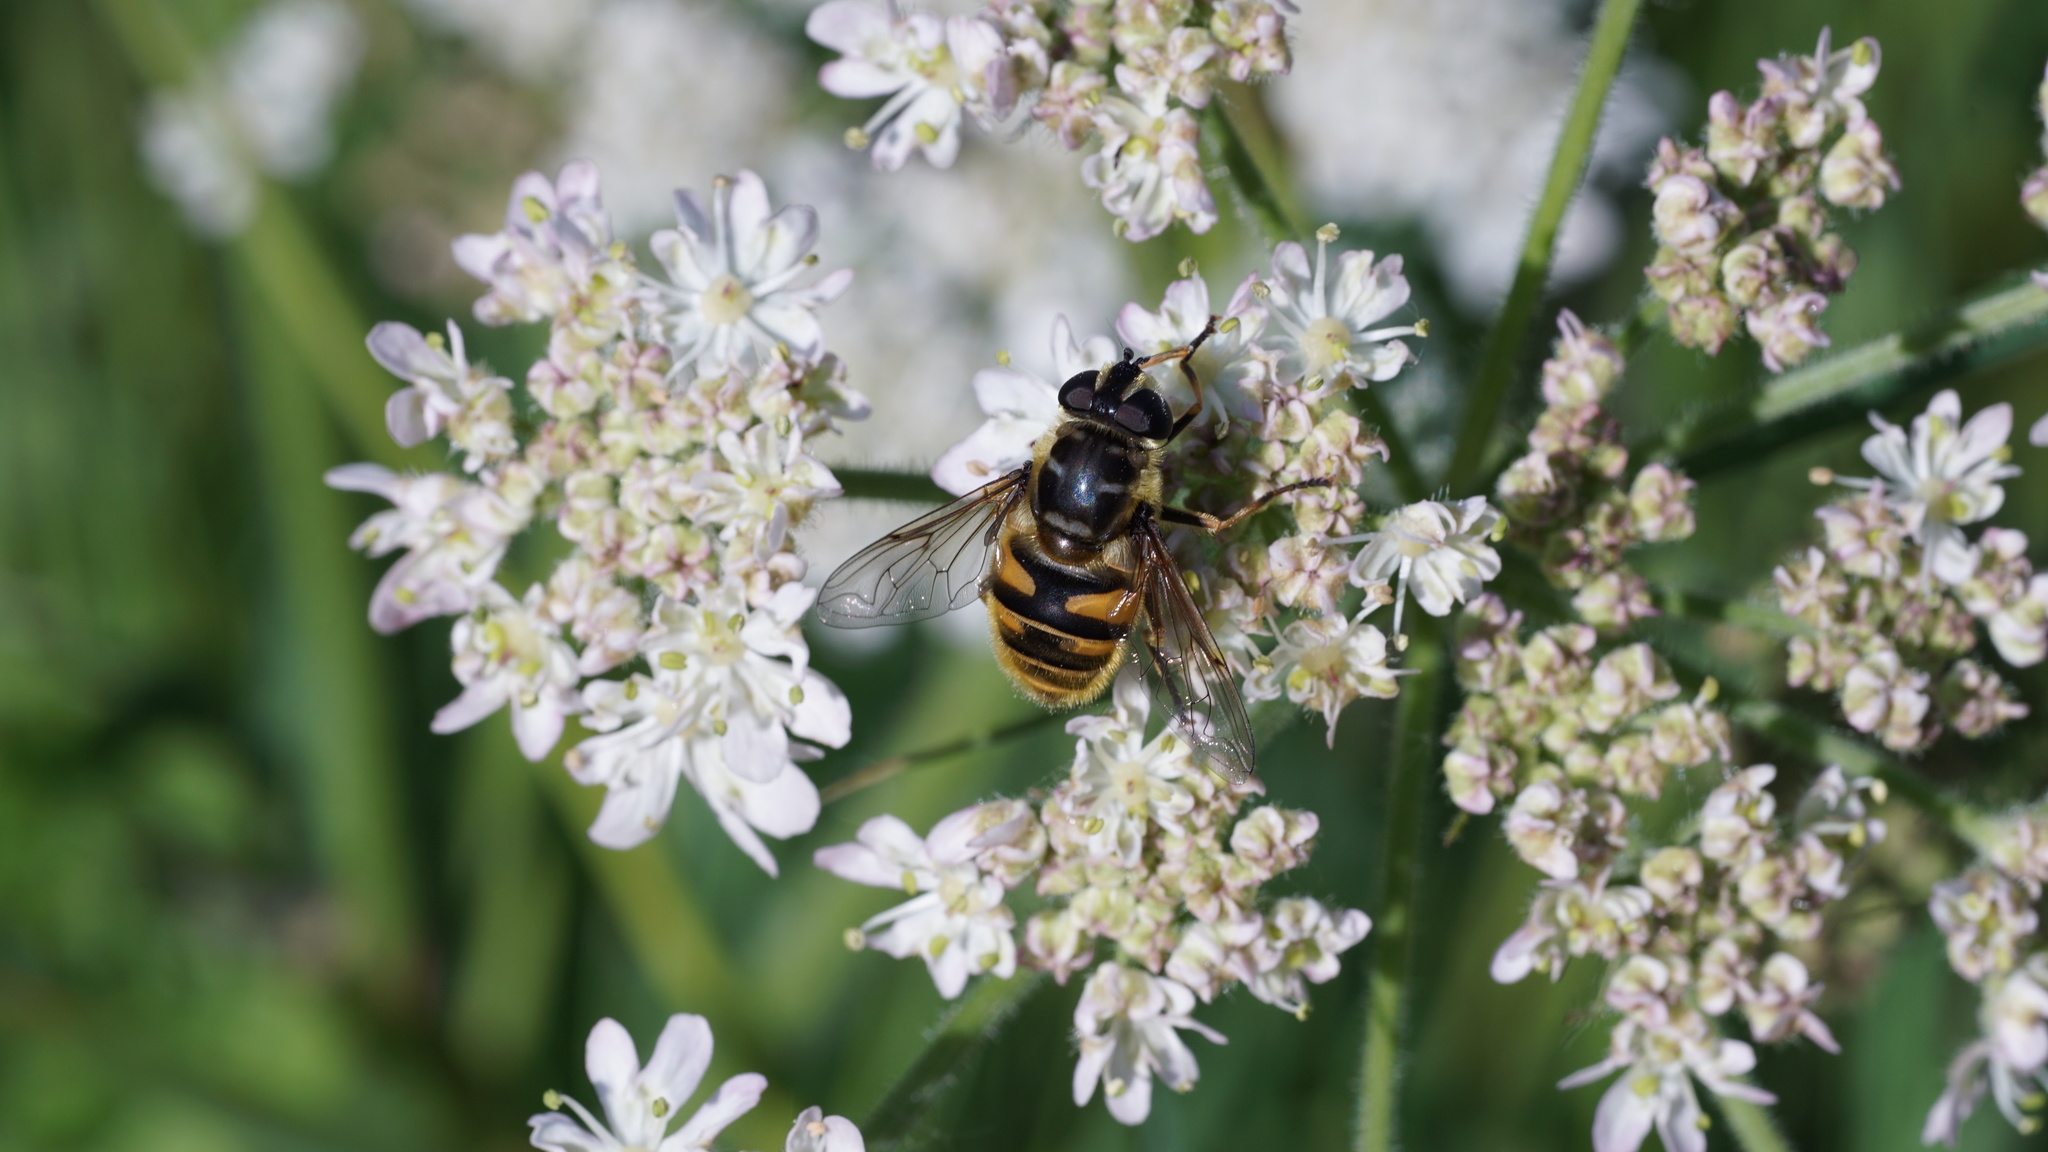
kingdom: Animalia
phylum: Arthropoda
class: Insecta
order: Diptera
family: Syrphidae
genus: Myathropa
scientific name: Myathropa florea
